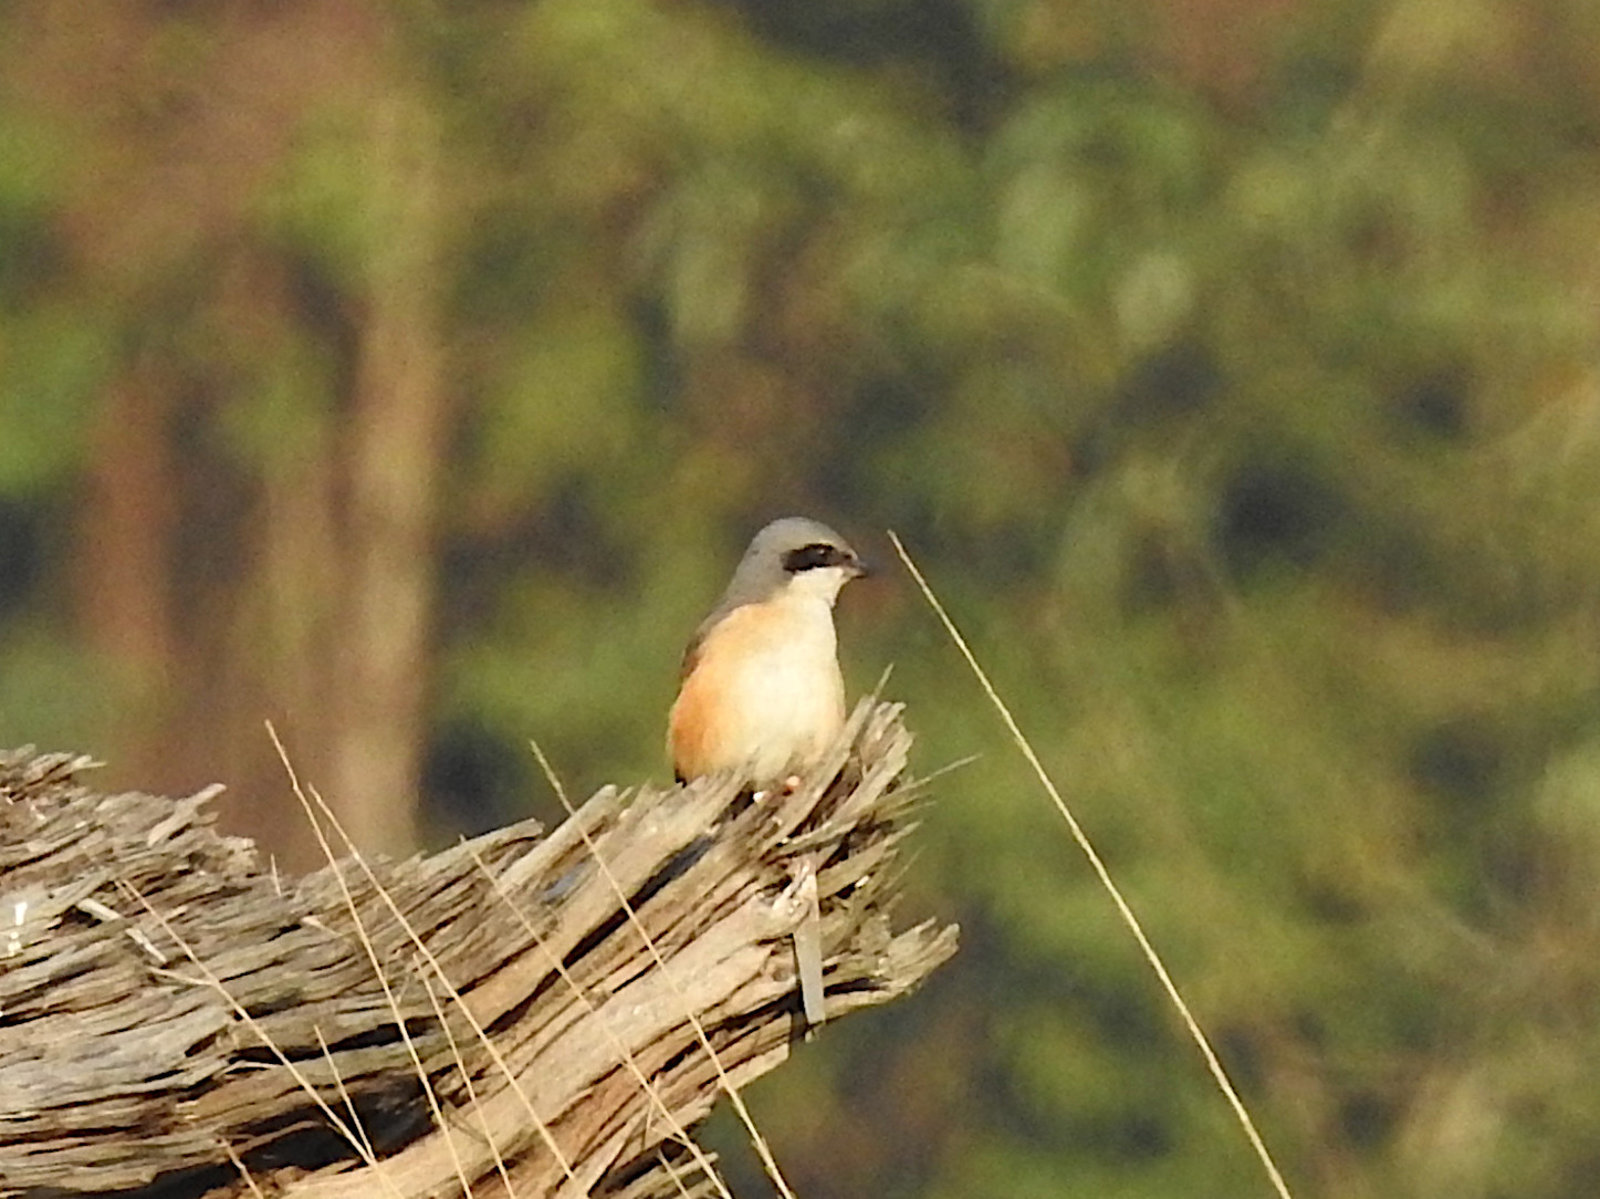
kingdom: Animalia
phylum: Chordata
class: Aves
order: Passeriformes
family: Laniidae
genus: Lanius
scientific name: Lanius tephronotus
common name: Grey-backed shrike
